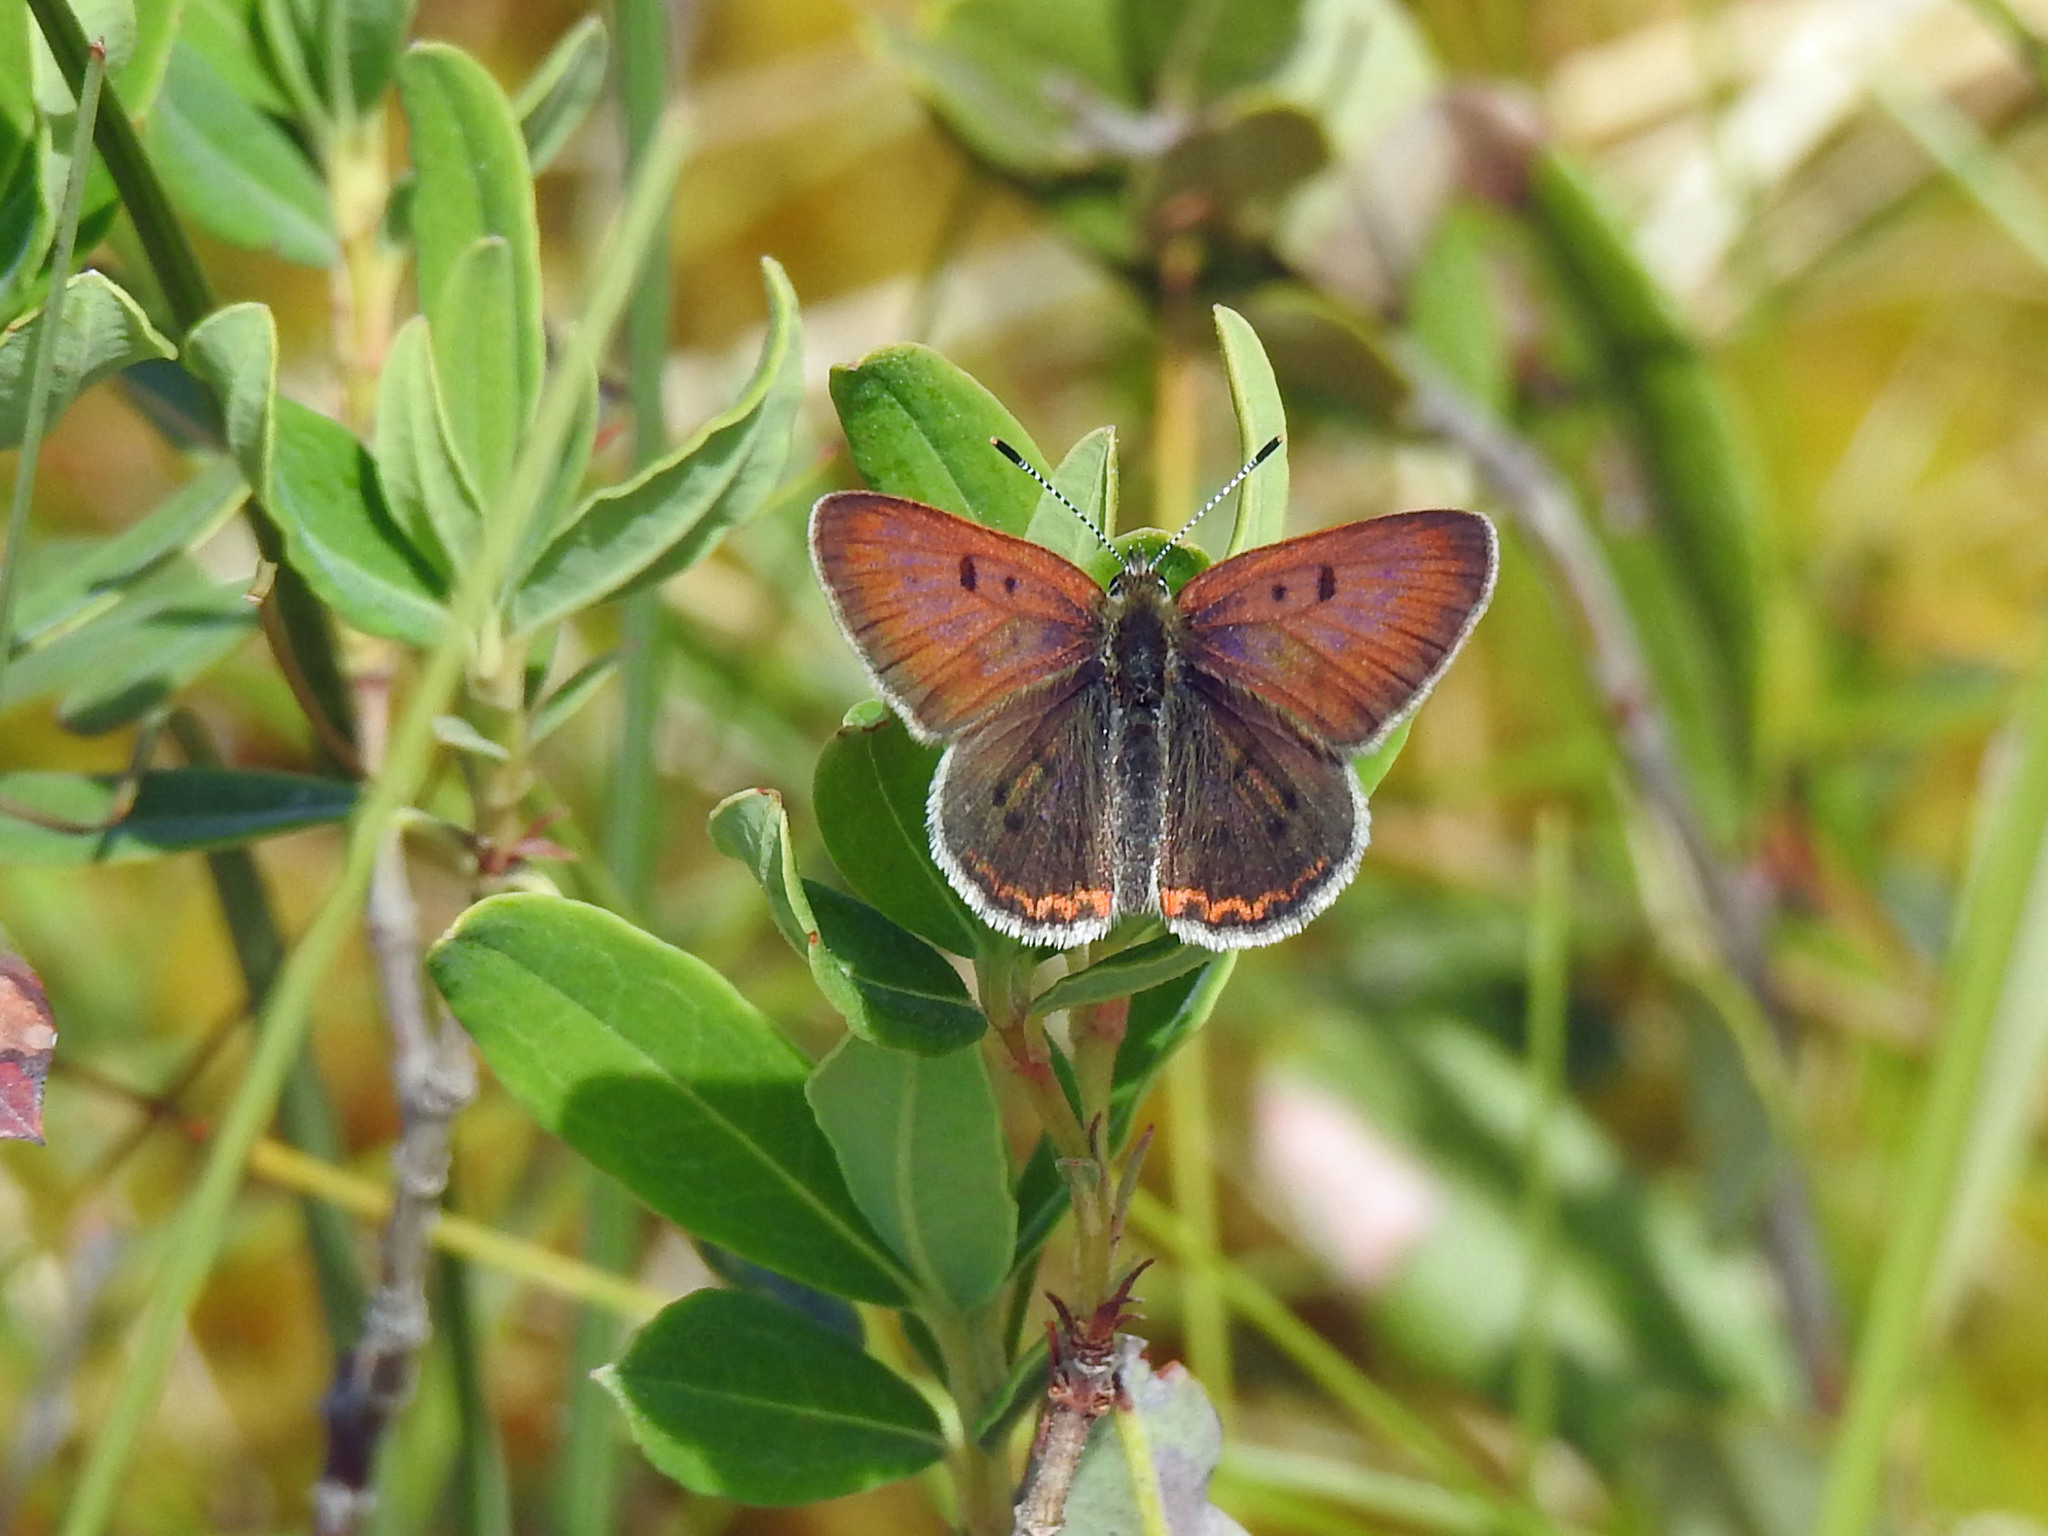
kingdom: Animalia
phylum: Arthropoda
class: Insecta
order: Lepidoptera
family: Lycaenidae
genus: Tharsalea
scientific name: Tharsalea epixanthe
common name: Bog copper
